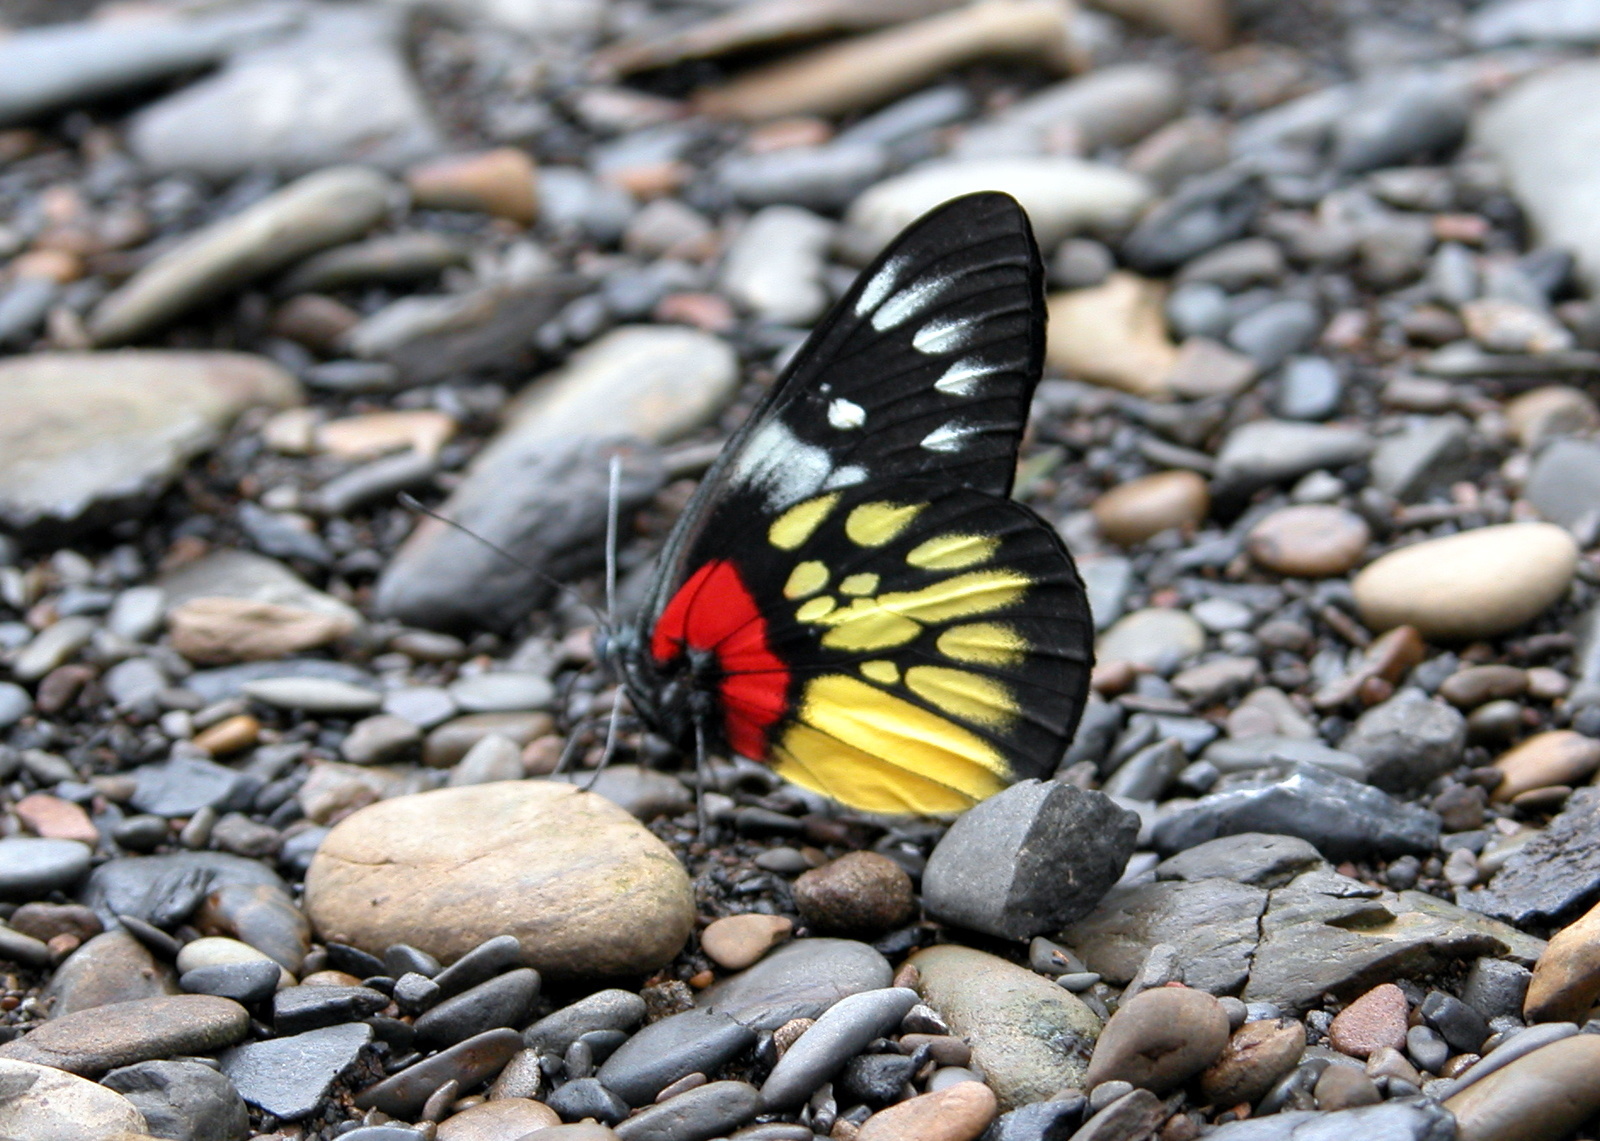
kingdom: Animalia
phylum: Arthropoda
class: Insecta
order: Lepidoptera
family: Pieridae
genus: Delias
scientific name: Delias pasithoe
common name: Red-base jezebel
